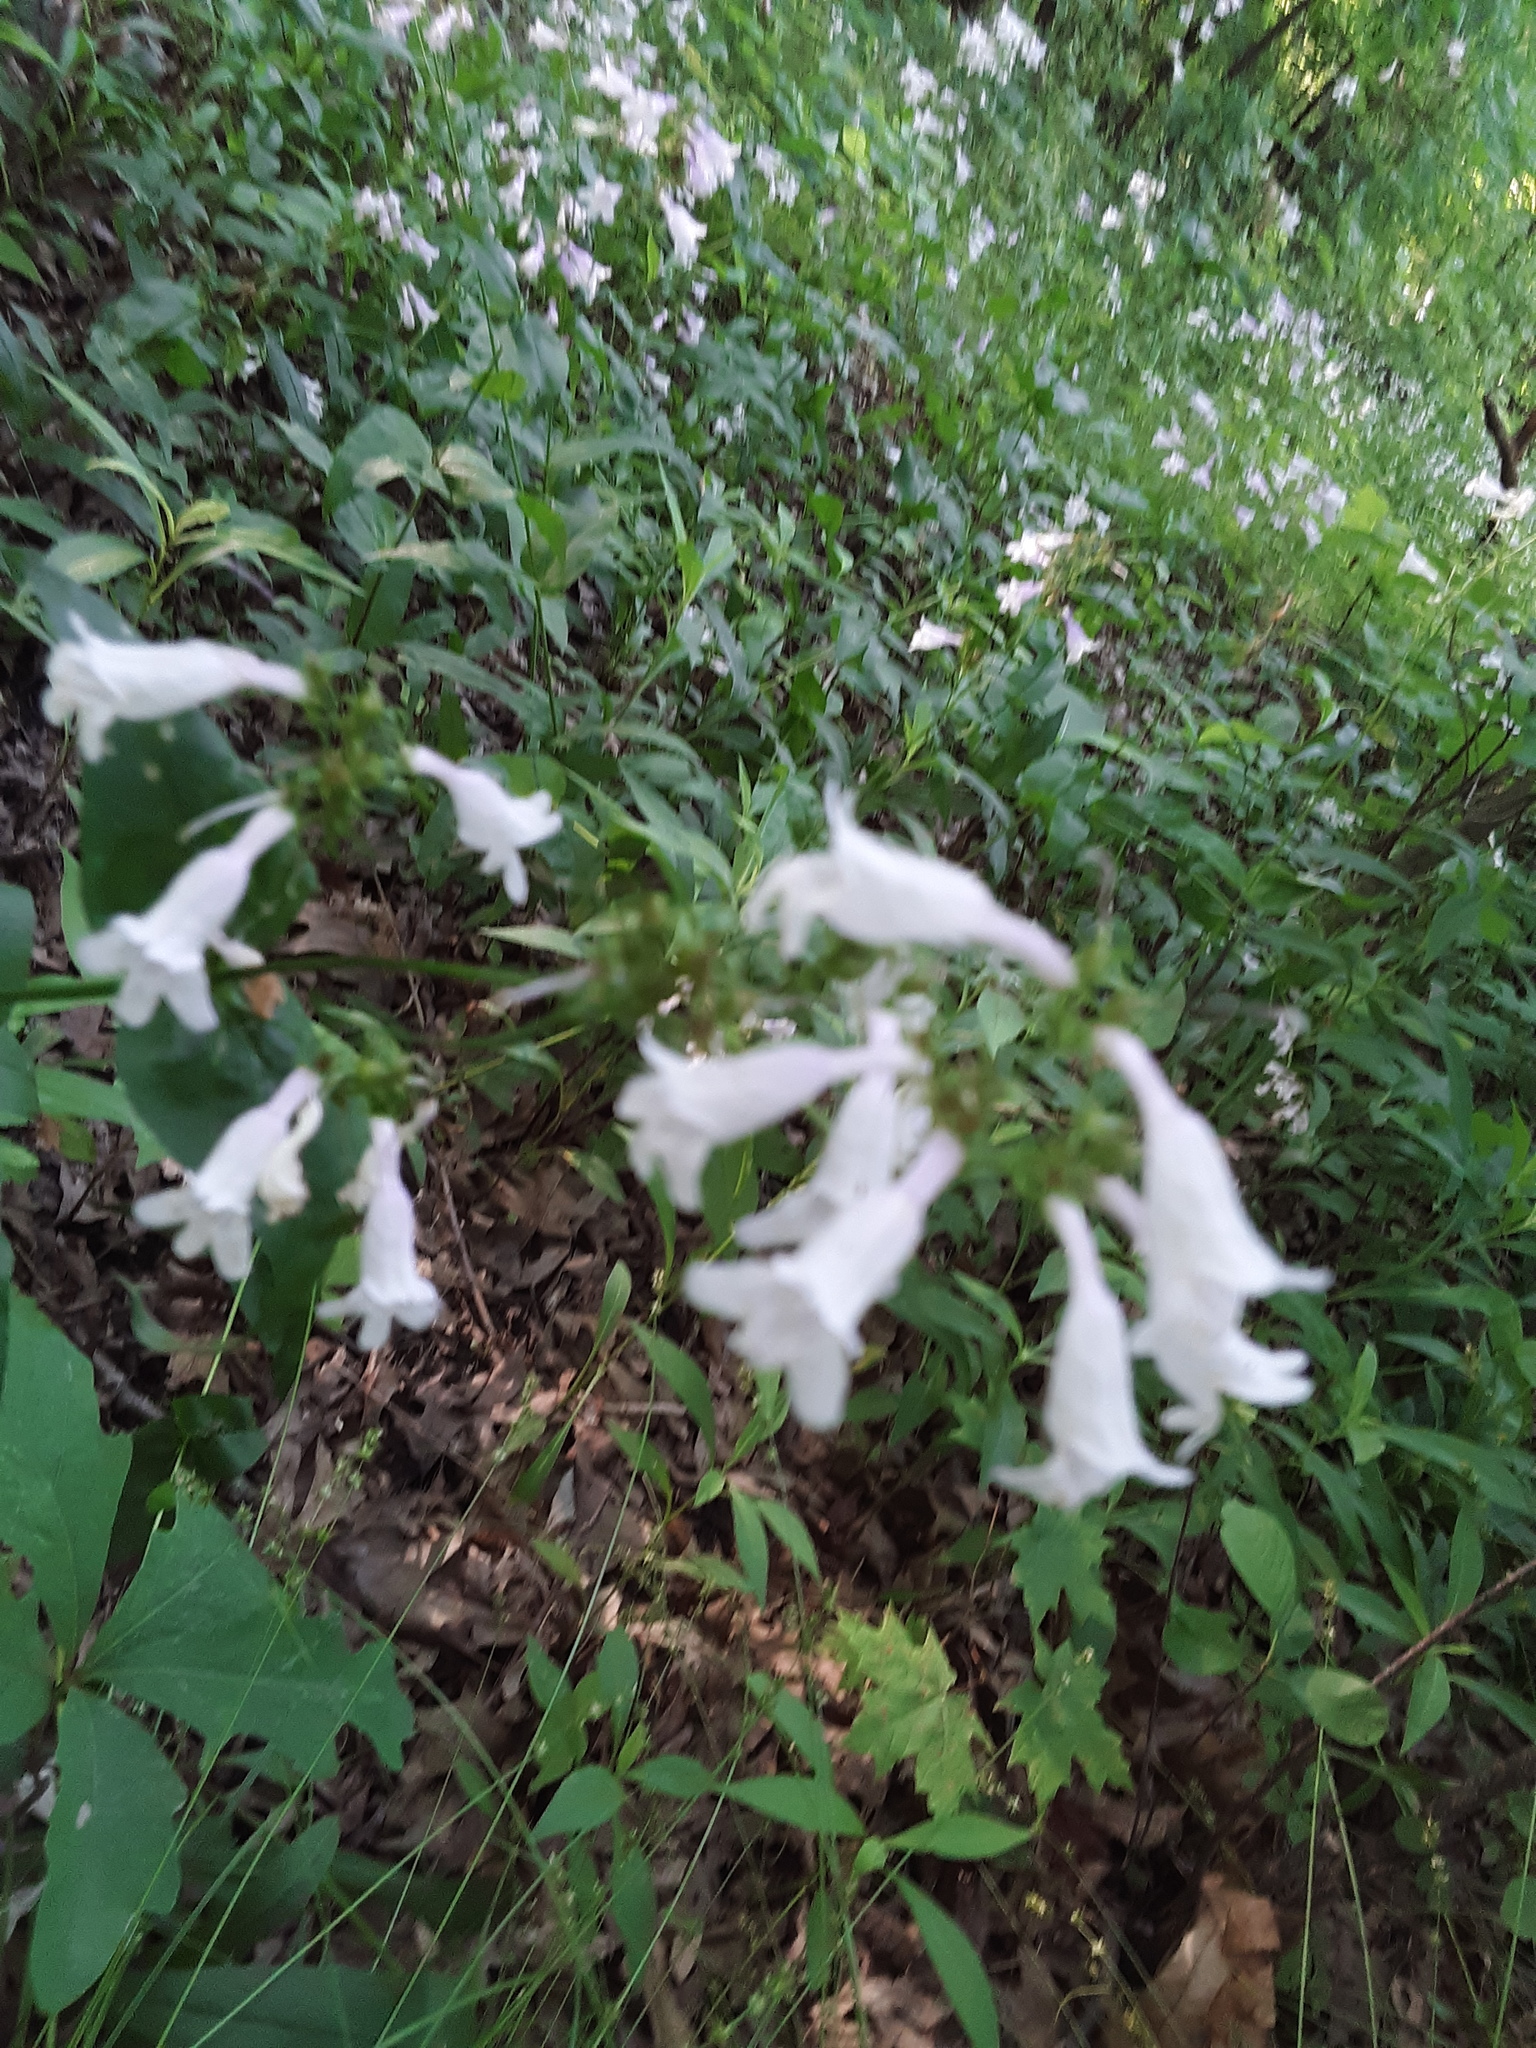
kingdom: Plantae
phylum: Tracheophyta
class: Magnoliopsida
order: Lamiales
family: Plantaginaceae
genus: Penstemon
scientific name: Penstemon digitalis
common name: Foxglove beardtongue
